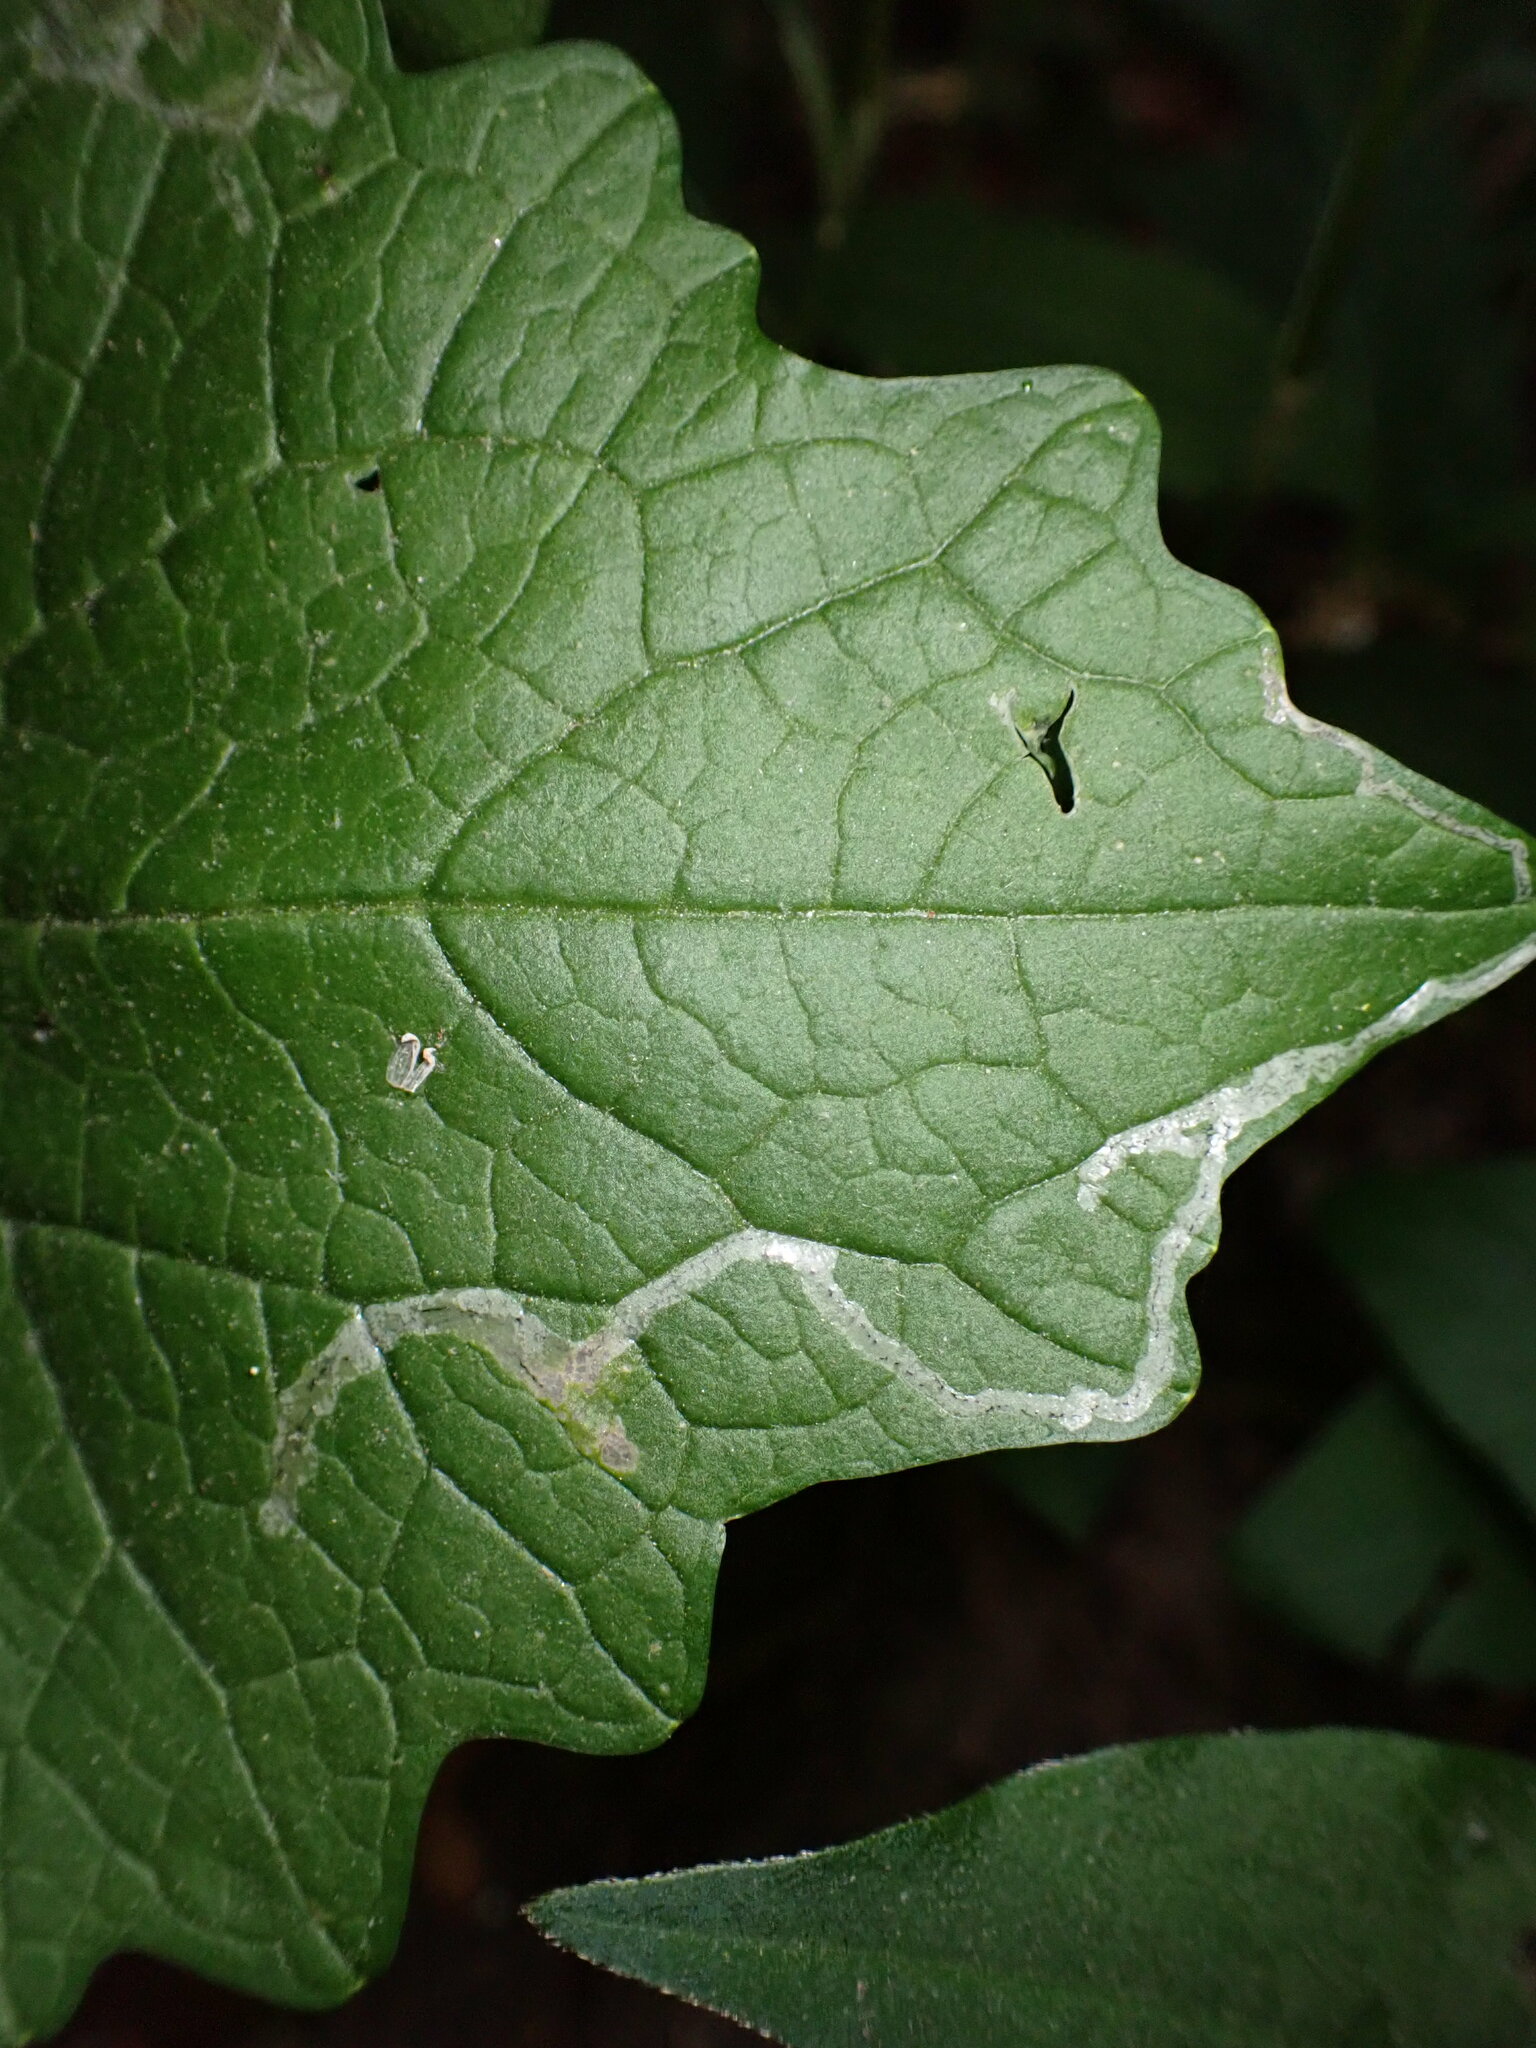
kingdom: Animalia
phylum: Arthropoda
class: Insecta
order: Diptera
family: Agromyzidae
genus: Liriomyza
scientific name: Liriomyza brassicae
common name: Serpentine leaf miner
